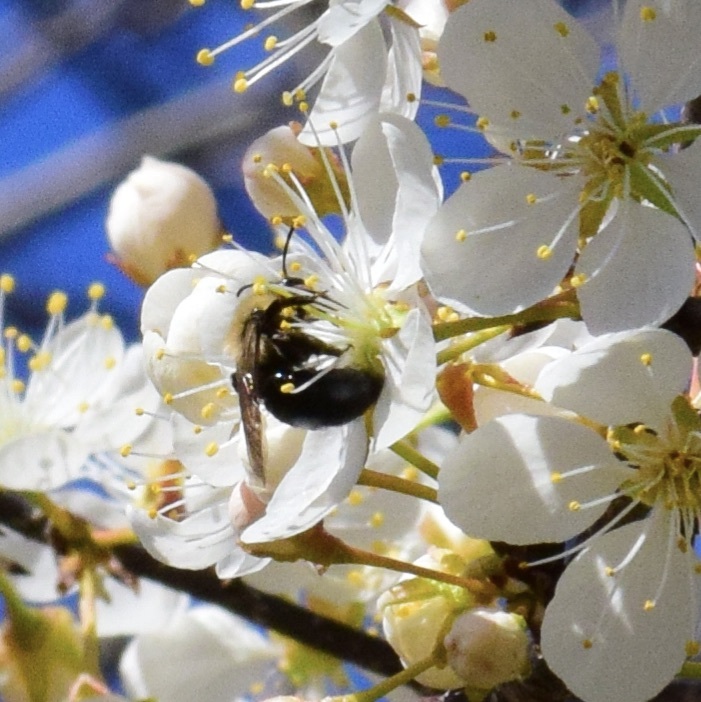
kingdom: Animalia
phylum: Arthropoda
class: Insecta
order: Hymenoptera
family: Apidae
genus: Bombus
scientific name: Bombus bimaculatus
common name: Two-spotted bumble bee
